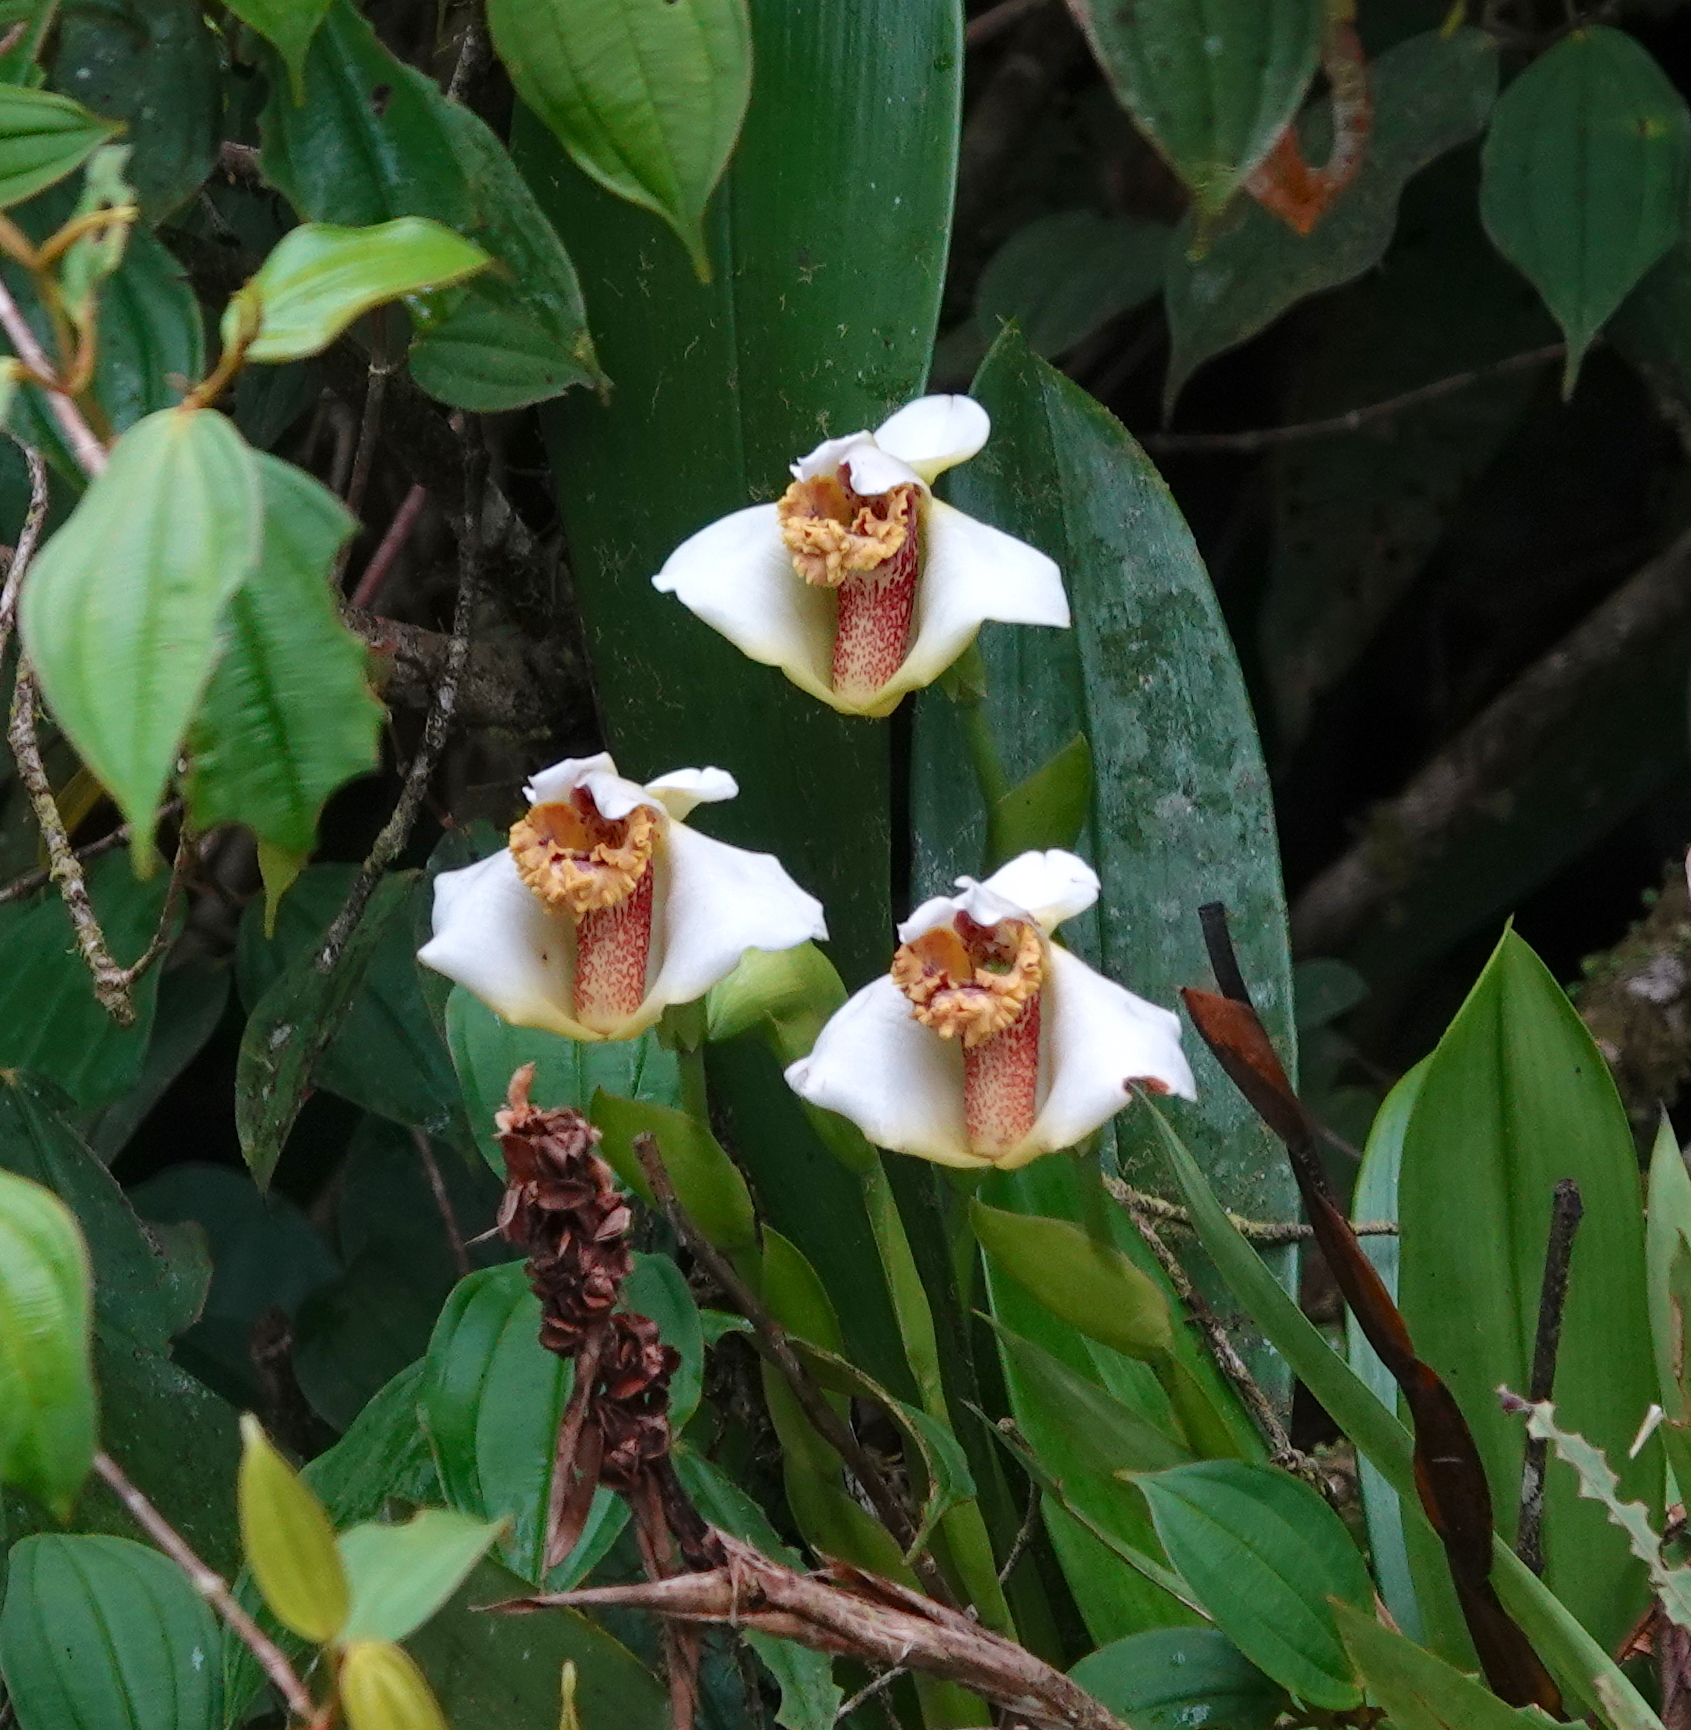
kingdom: Plantae
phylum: Tracheophyta
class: Liliopsida
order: Asparagales
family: Orchidaceae
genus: Maxillaria
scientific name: Maxillaria fletcheriana
